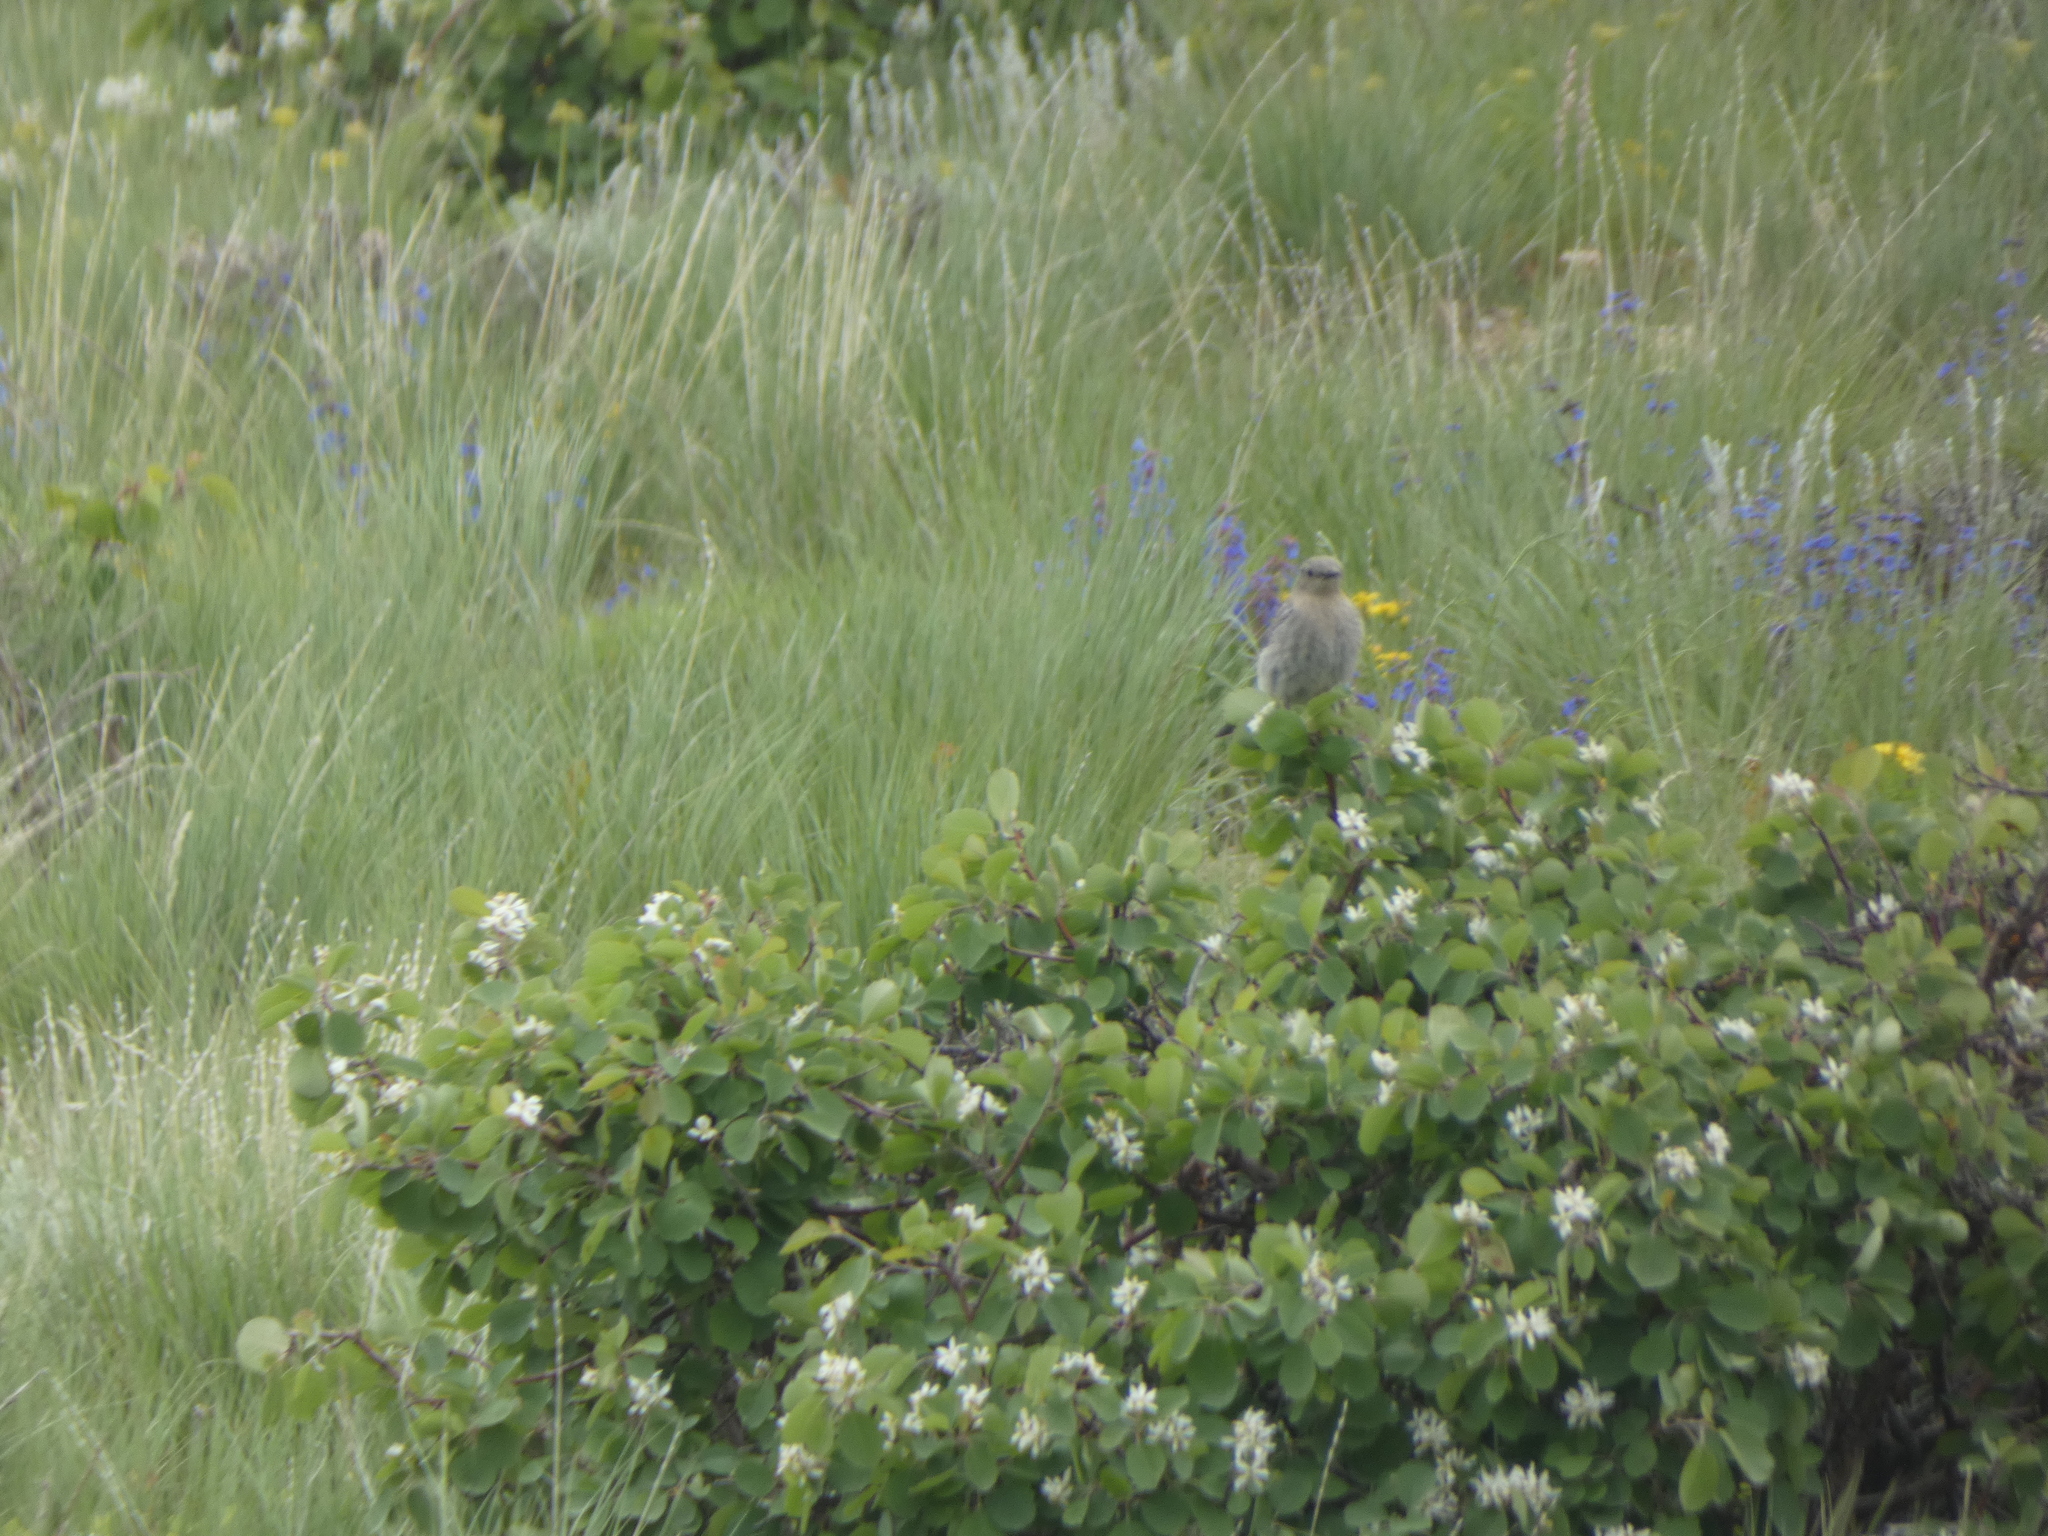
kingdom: Animalia
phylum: Chordata
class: Aves
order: Passeriformes
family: Turdidae
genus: Sialia
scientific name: Sialia currucoides
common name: Mountain bluebird
